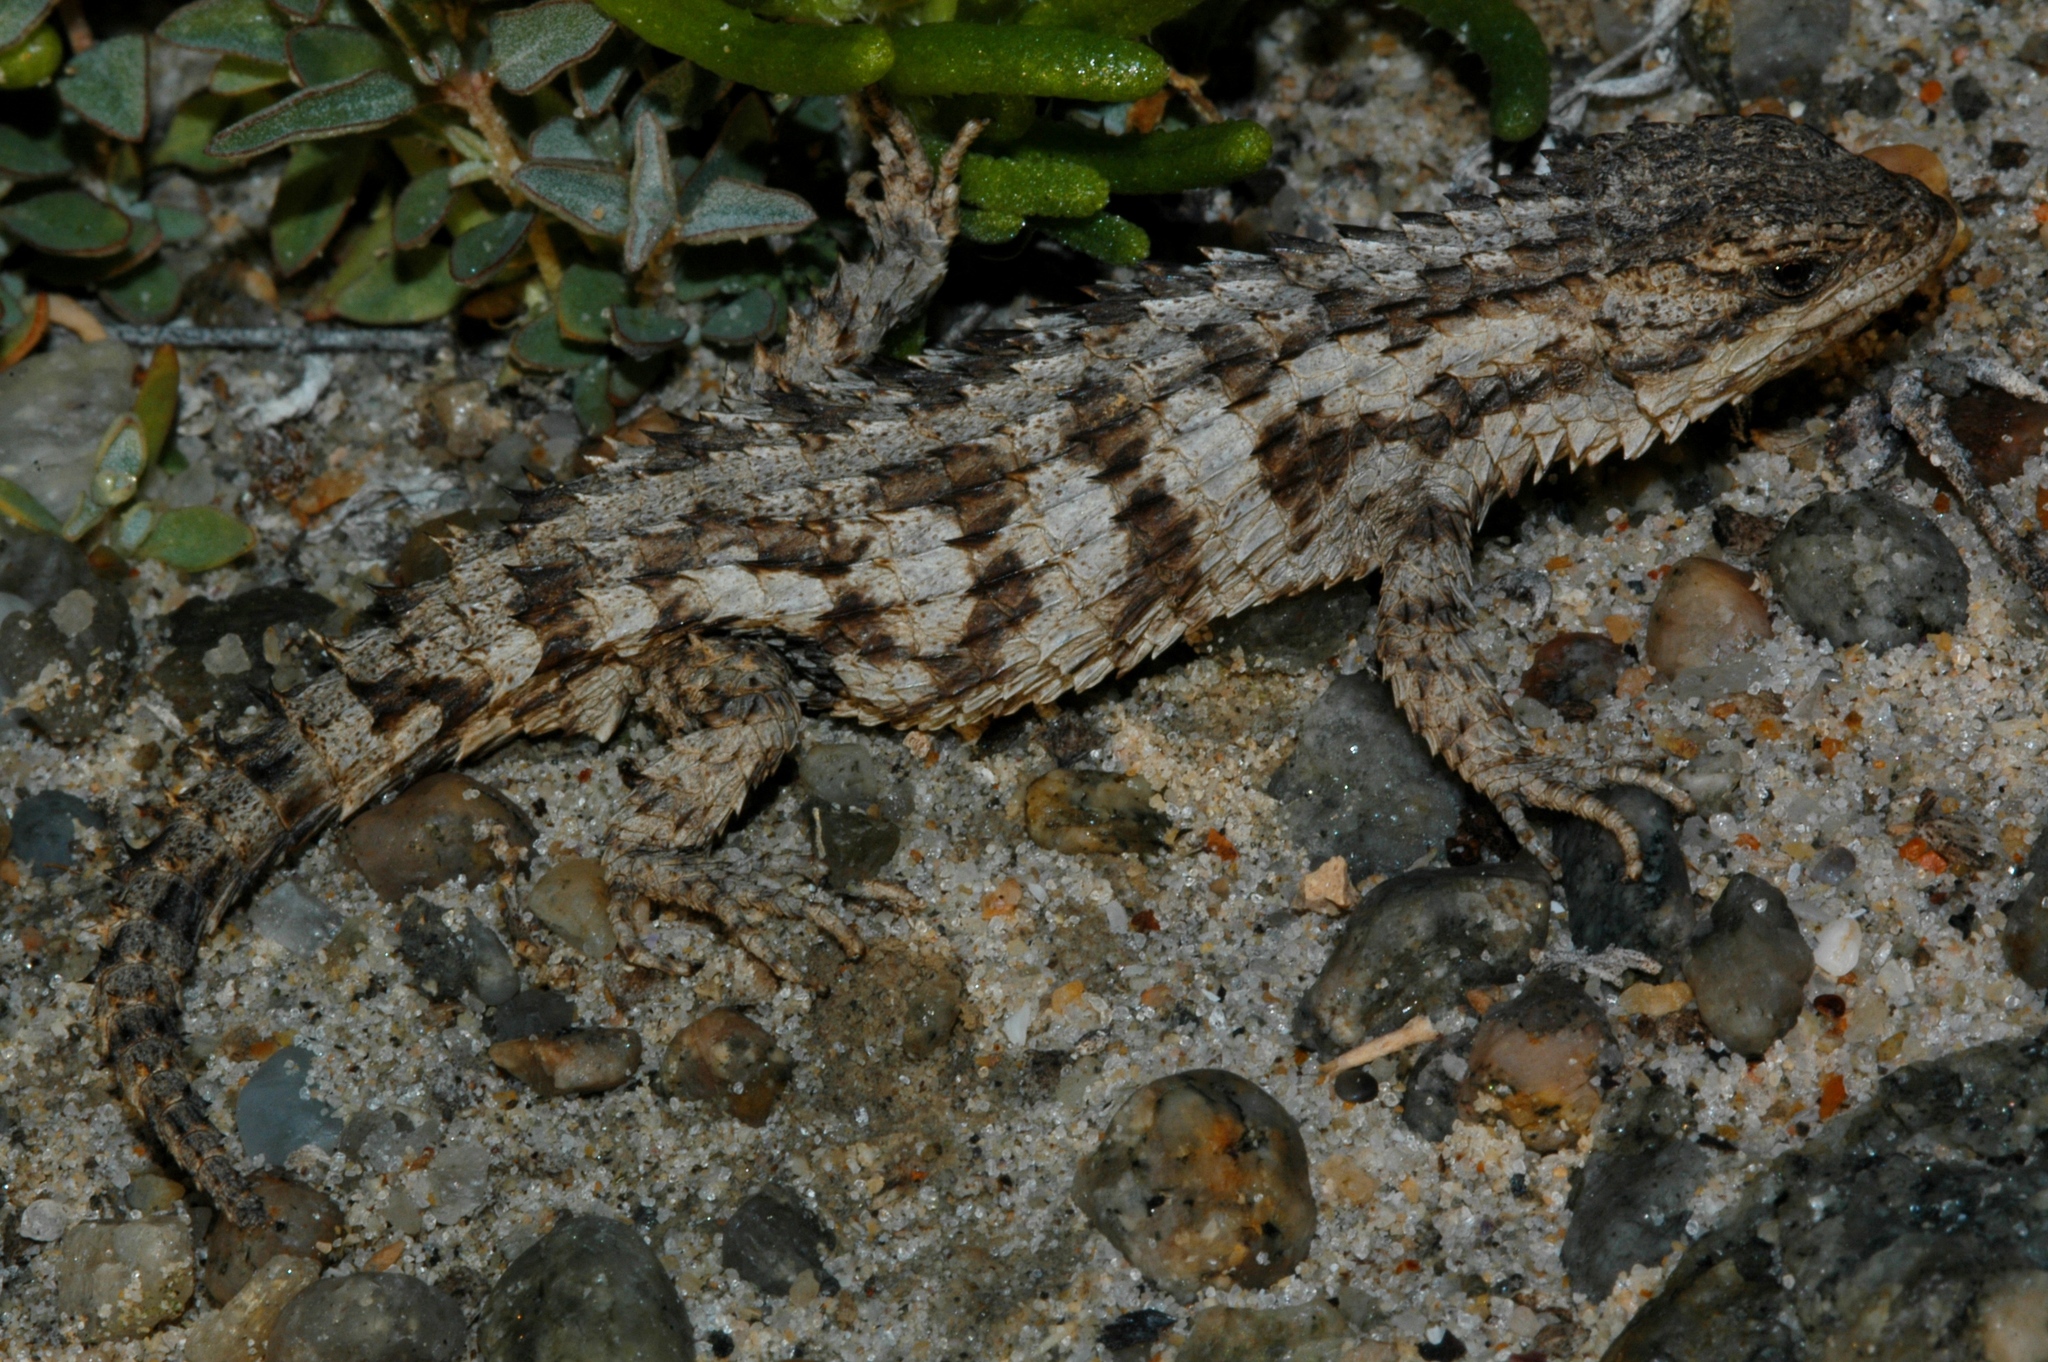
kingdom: Animalia
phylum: Chordata
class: Squamata
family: Cordylidae
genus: Cordylus
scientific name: Cordylus macropholis
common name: Large-scaled girdled lizard
